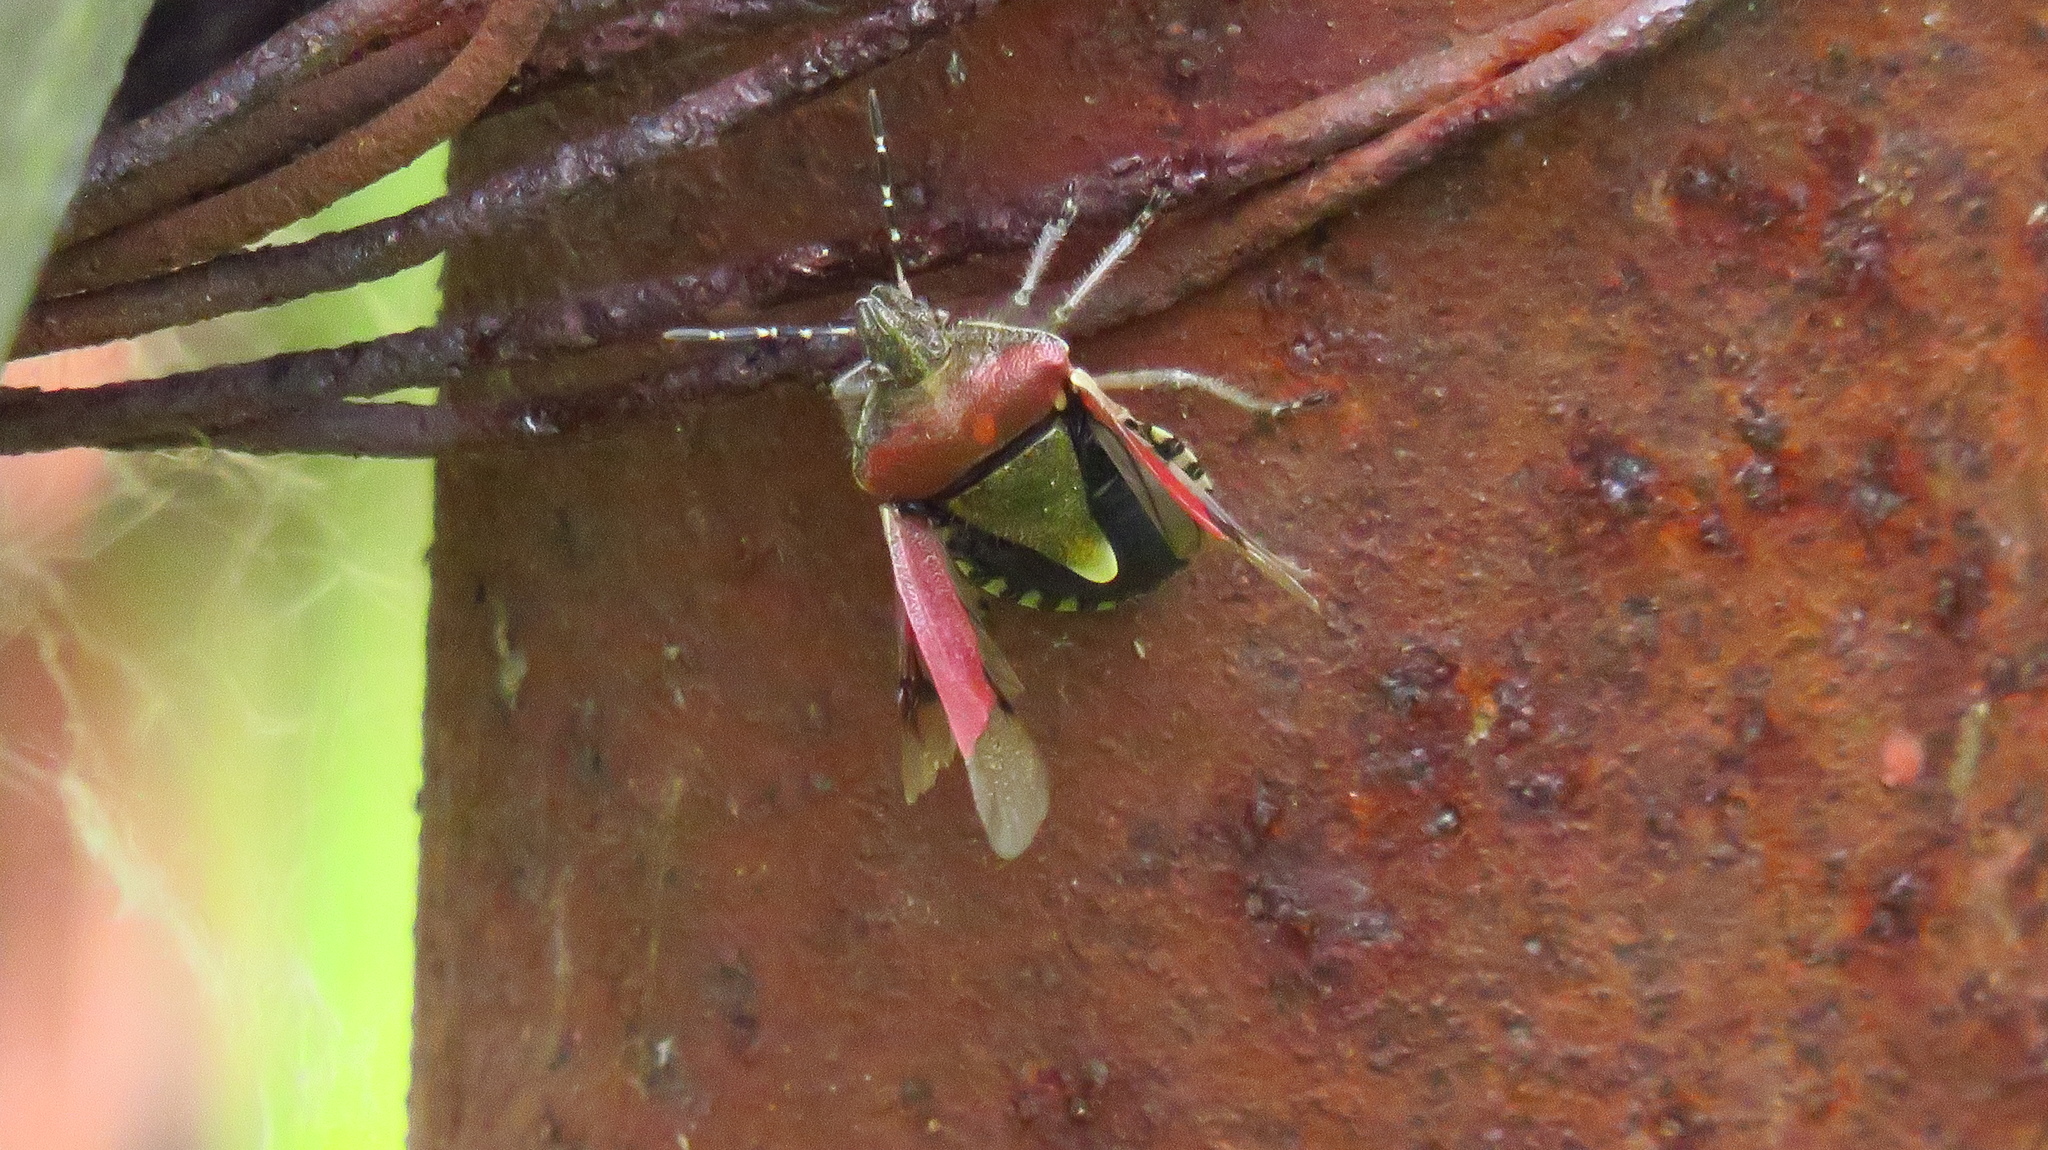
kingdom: Animalia
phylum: Arthropoda
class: Insecta
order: Hemiptera
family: Pentatomidae
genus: Dolycoris
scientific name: Dolycoris baccarum
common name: Sloe bug
